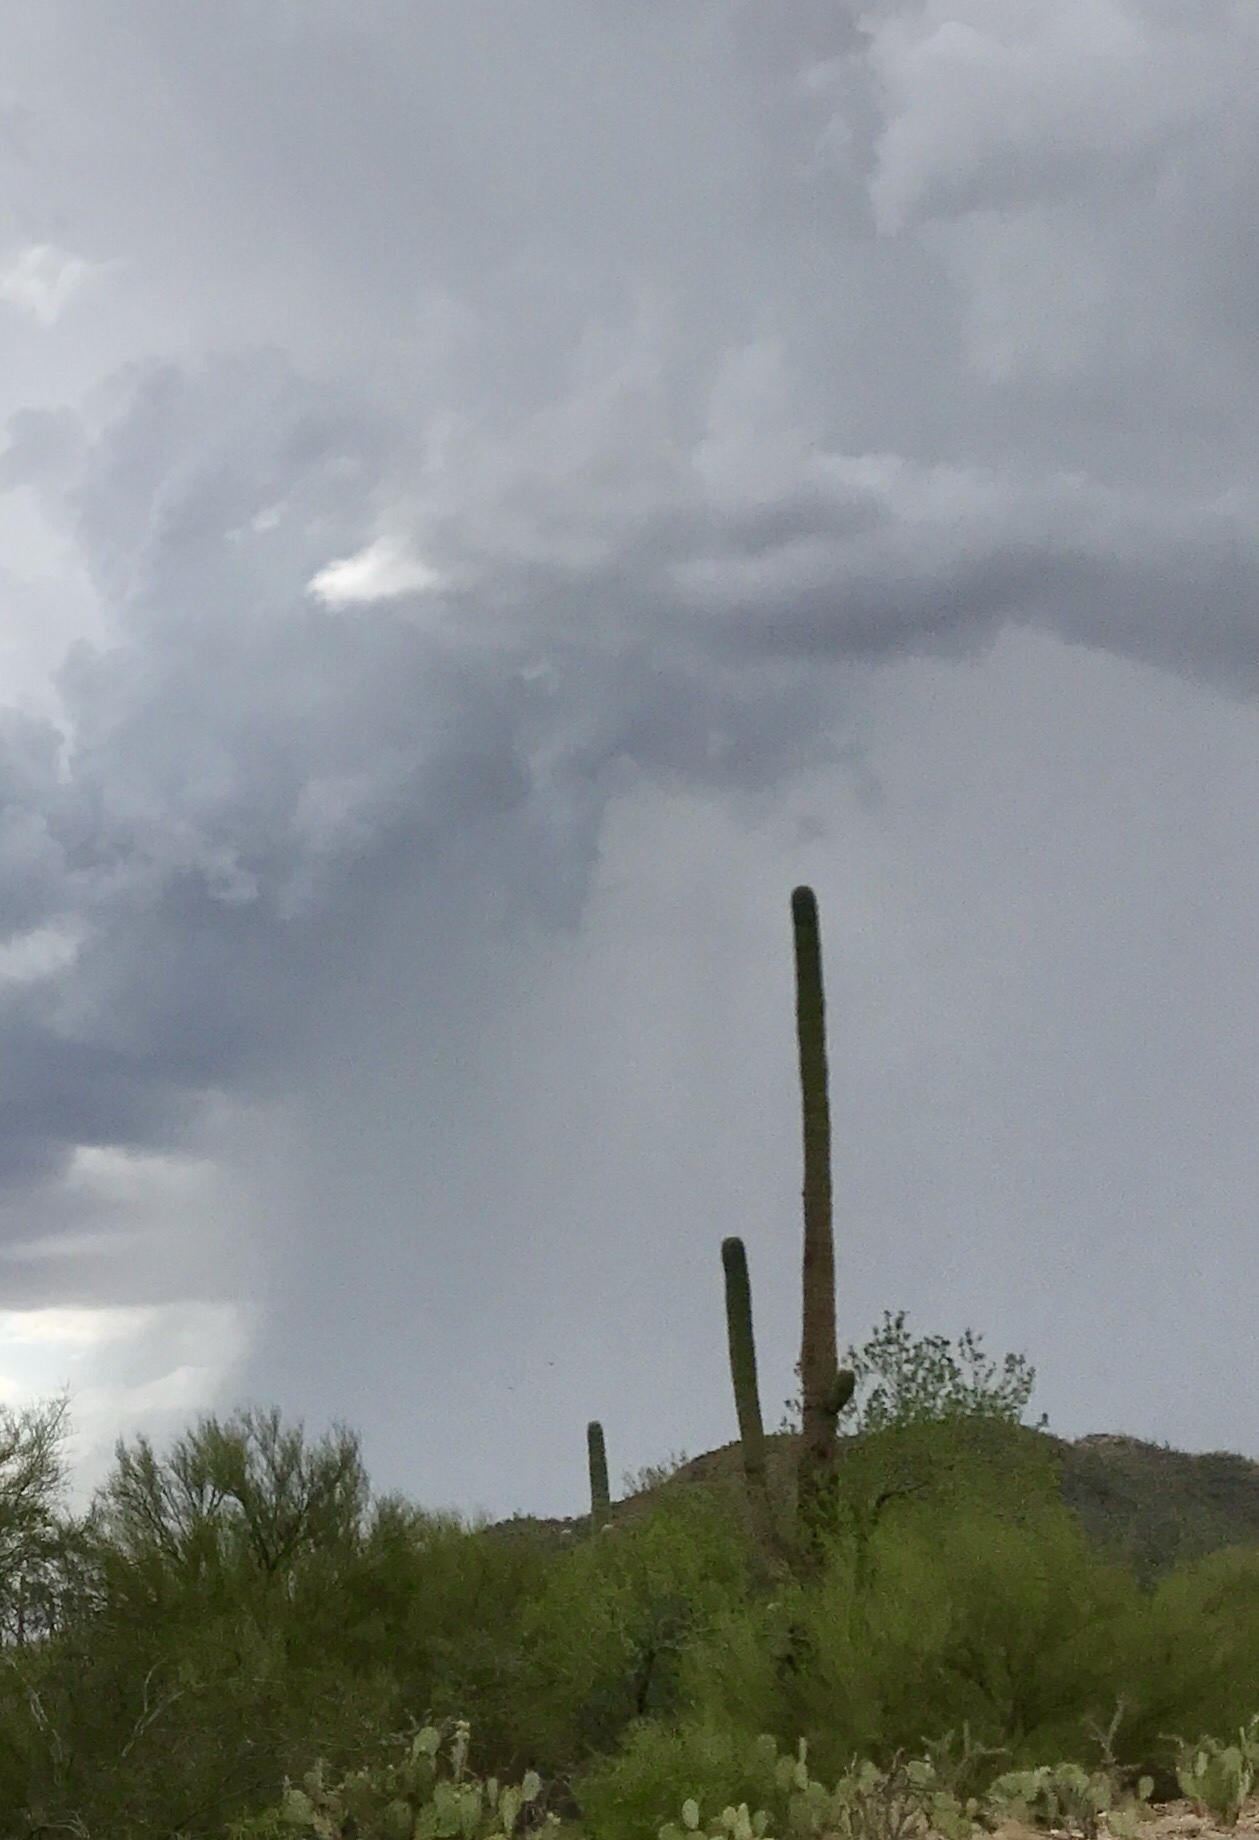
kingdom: Plantae
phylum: Tracheophyta
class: Magnoliopsida
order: Caryophyllales
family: Cactaceae
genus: Carnegiea
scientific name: Carnegiea gigantea
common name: Saguaro
